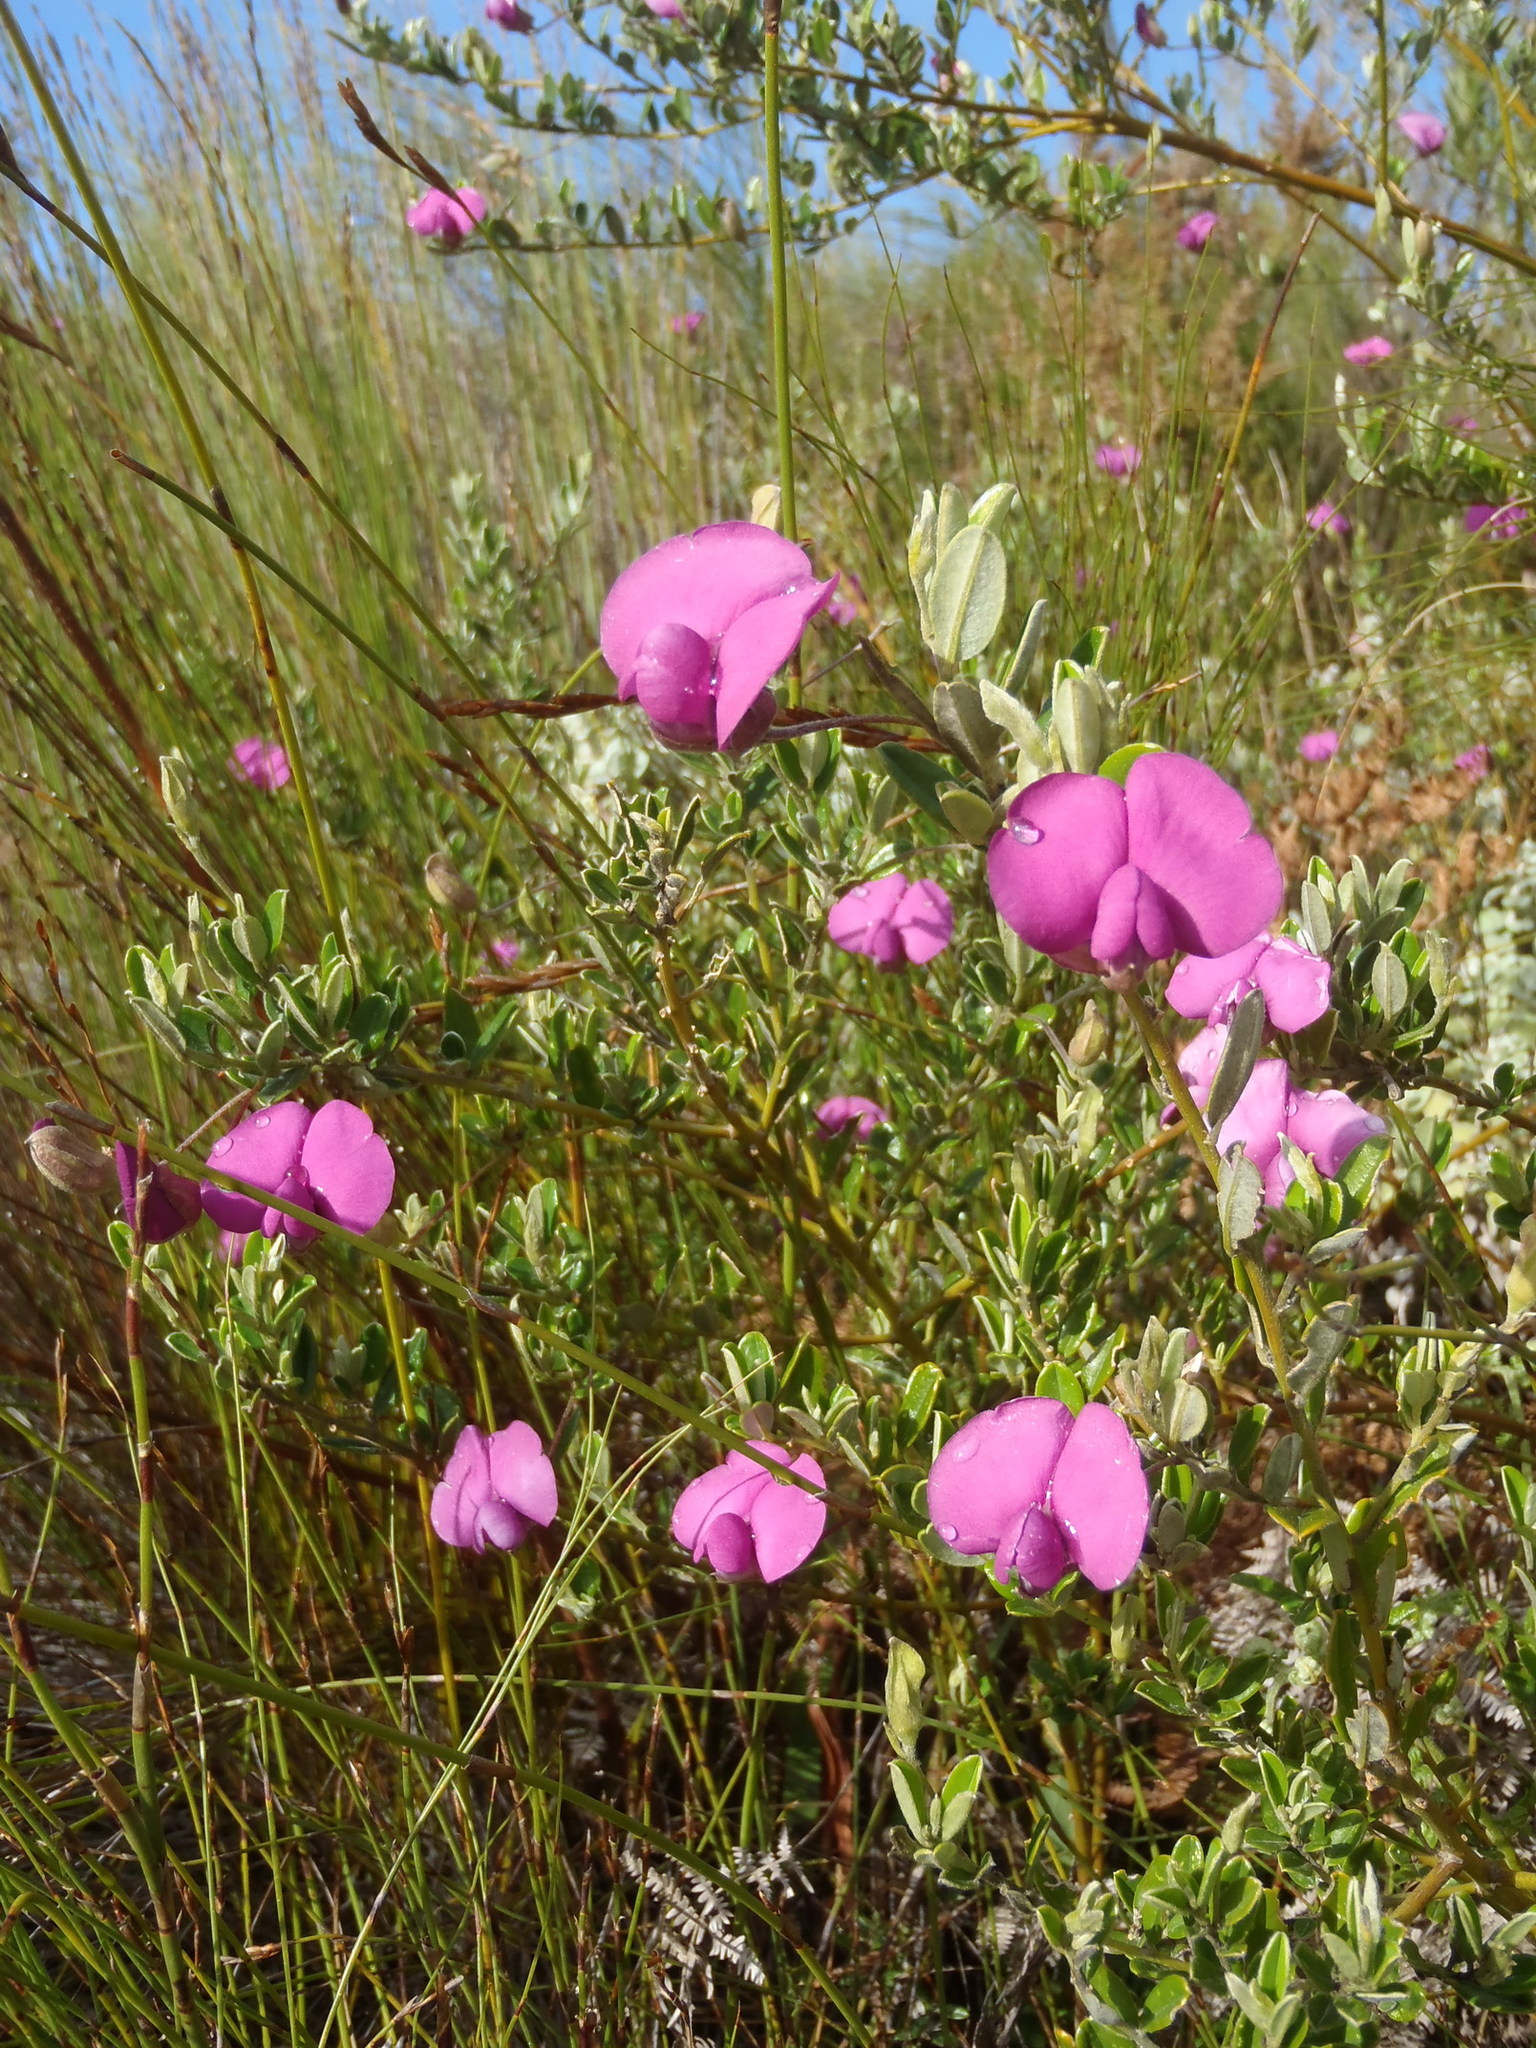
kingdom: Plantae
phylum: Tracheophyta
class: Magnoliopsida
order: Fabales
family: Fabaceae
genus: Podalyria
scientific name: Podalyria buxifolia
